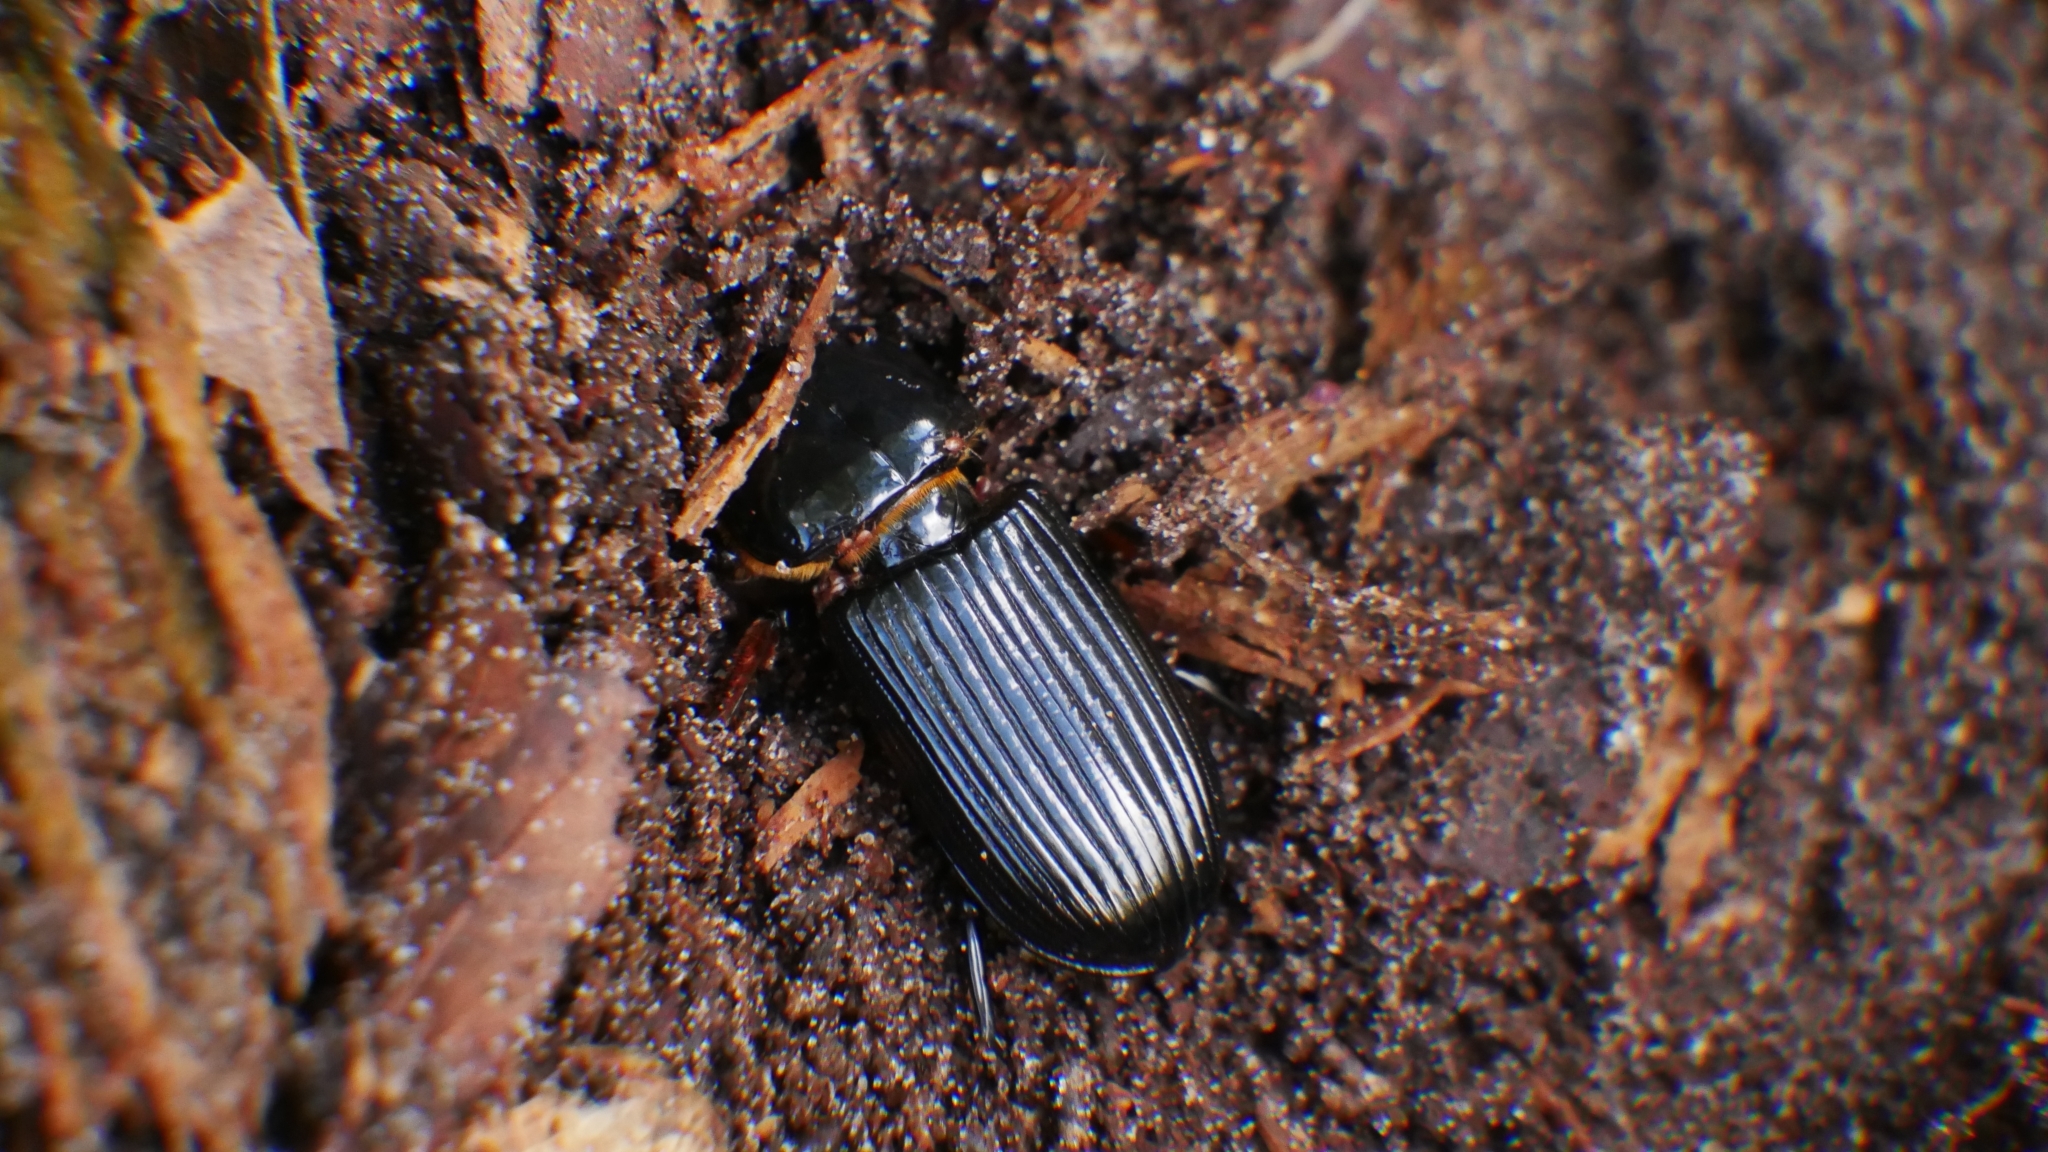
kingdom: Animalia
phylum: Arthropoda
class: Insecta
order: Coleoptera
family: Passalidae
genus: Odontotaenius
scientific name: Odontotaenius disjunctus
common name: Patent leather beetle
